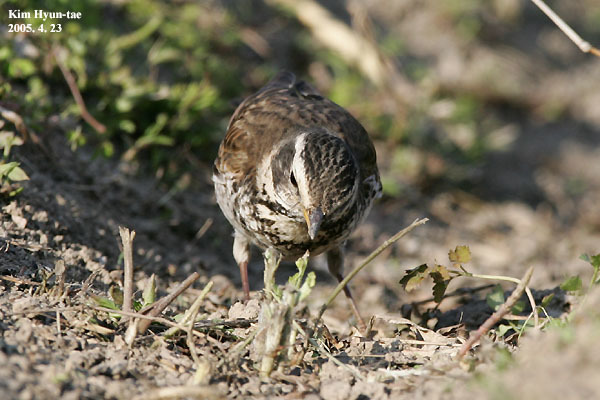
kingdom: Animalia
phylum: Chordata
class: Aves
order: Passeriformes
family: Turdidae
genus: Turdus
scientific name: Turdus eunomus
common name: Dusky thrush
